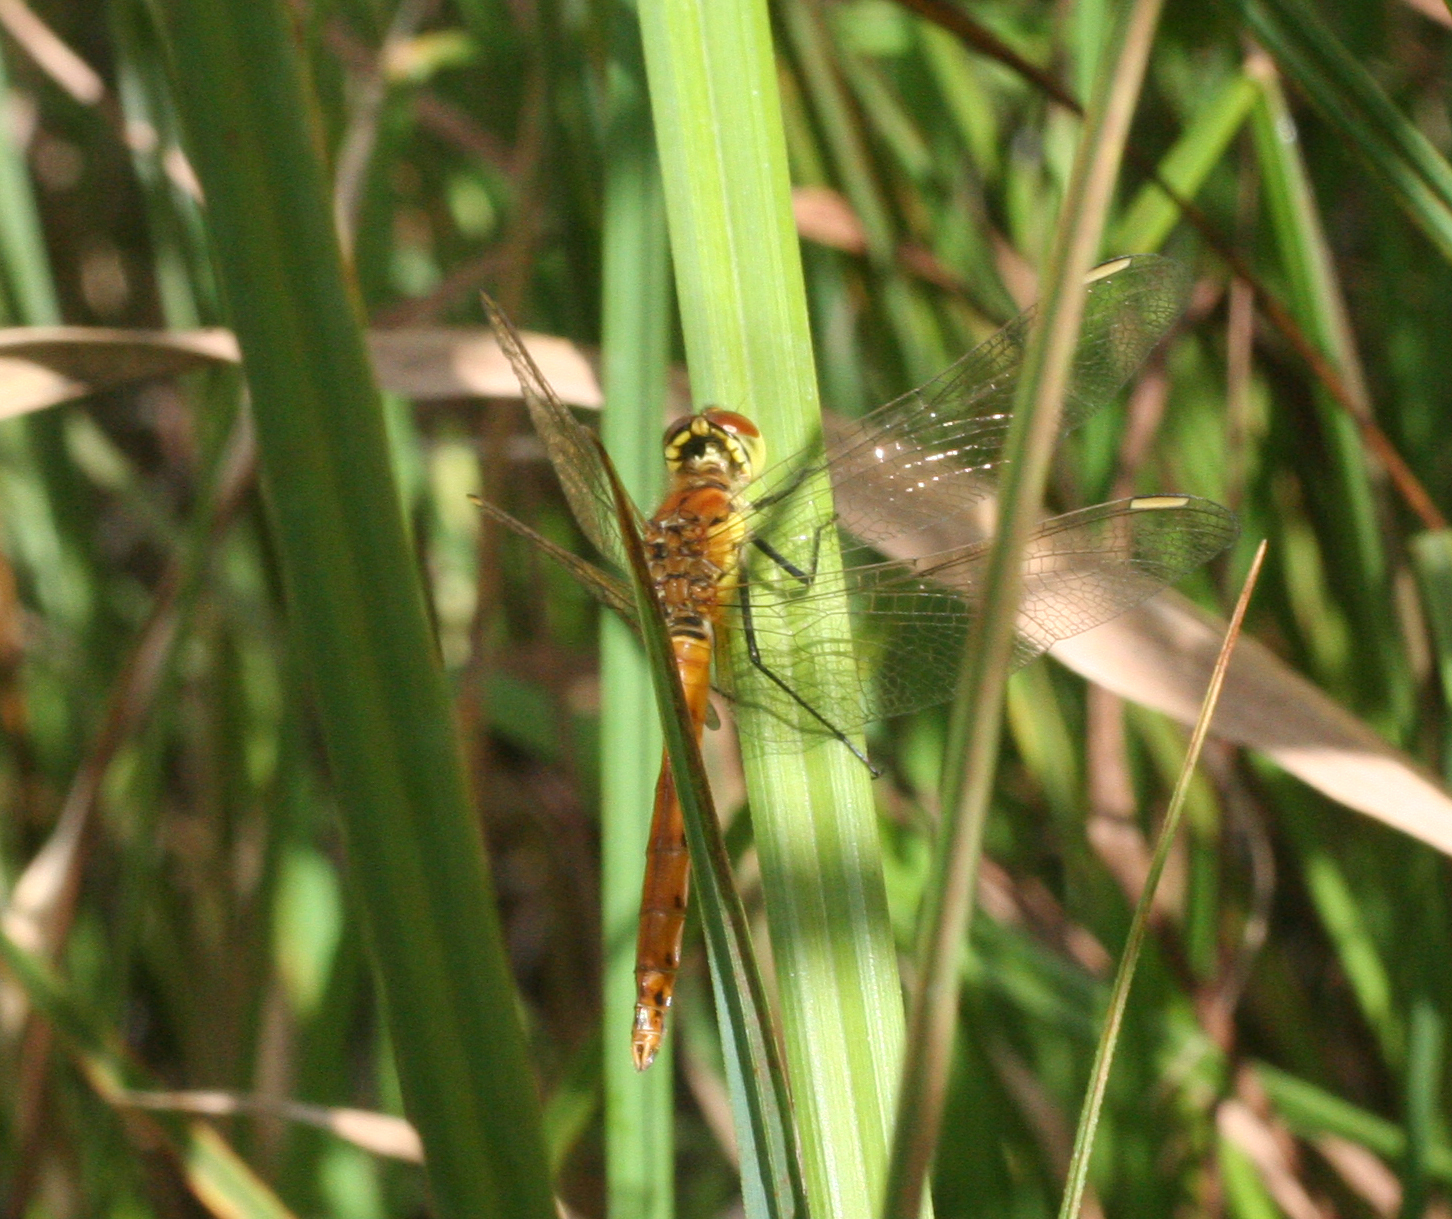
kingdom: Animalia
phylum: Arthropoda
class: Insecta
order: Odonata
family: Libellulidae
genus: Sympetrum
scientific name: Sympetrum depressiusculum
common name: Spotted darter
